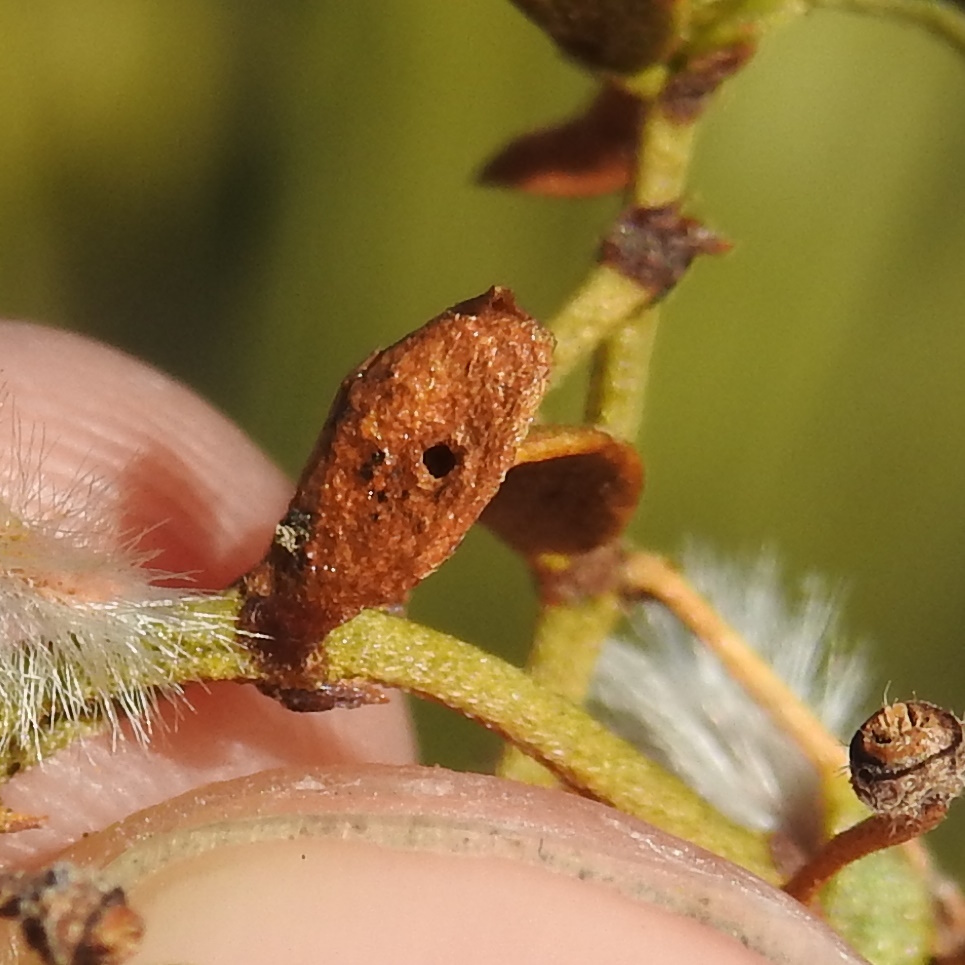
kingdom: Animalia
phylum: Arthropoda
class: Insecta
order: Diptera
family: Cecidomyiidae
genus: Asphondylia
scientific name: Asphondylia discalis
